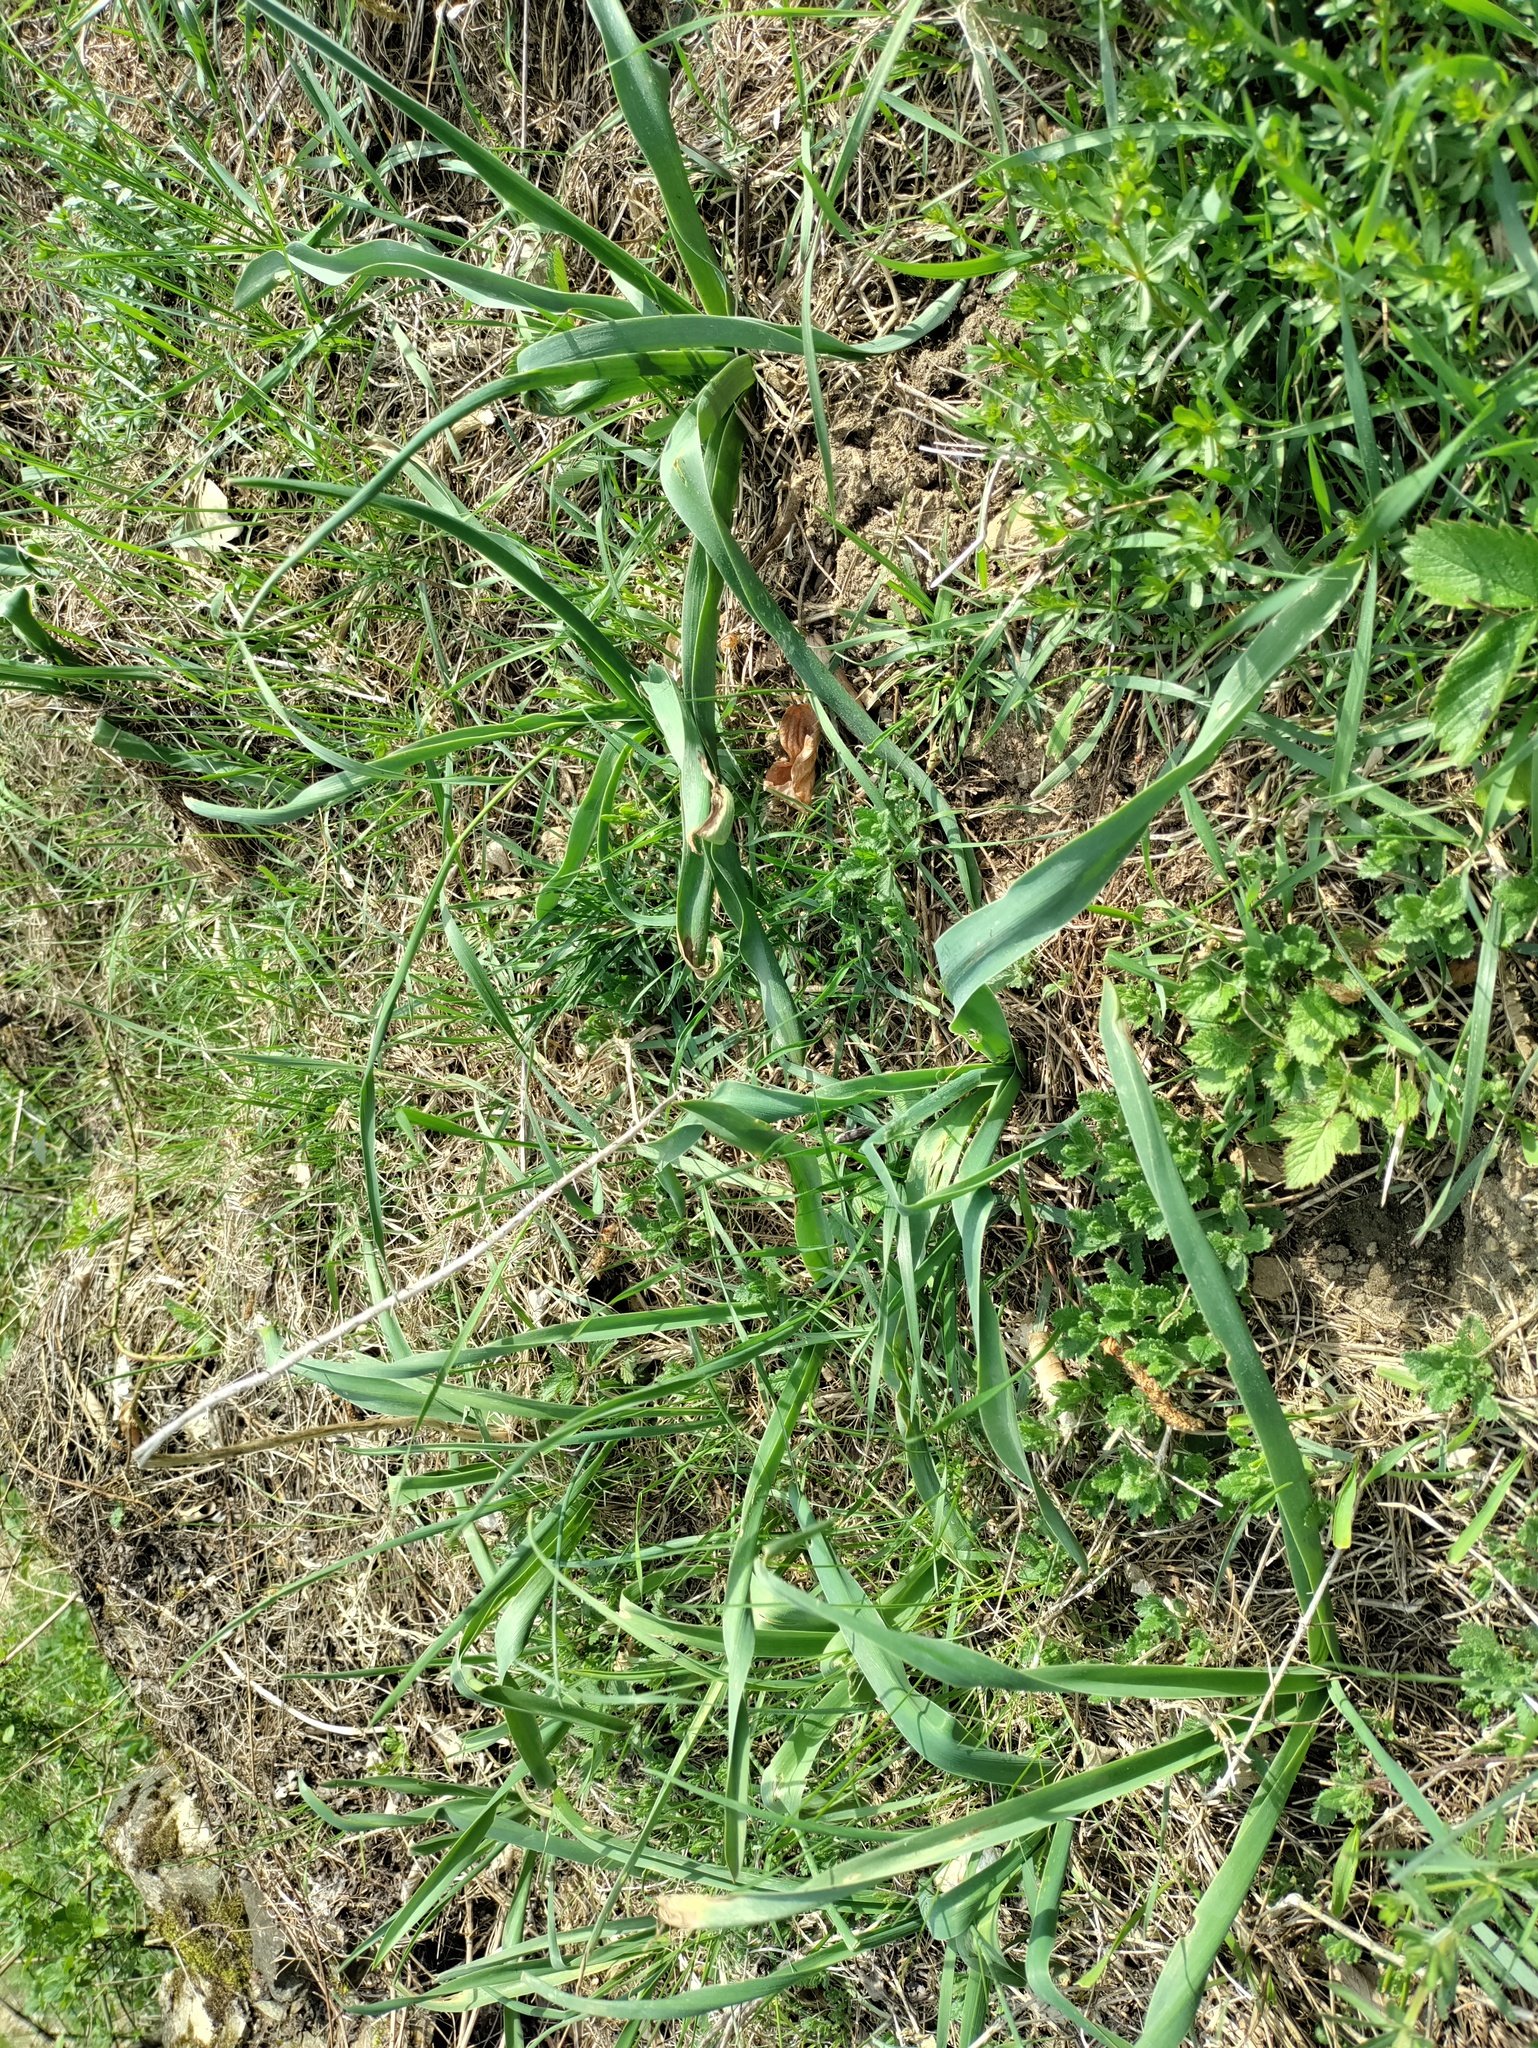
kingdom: Plantae
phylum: Tracheophyta
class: Liliopsida
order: Asparagales
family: Asparagaceae
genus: Muscari
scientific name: Muscari comosum
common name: Tassel hyacinth
